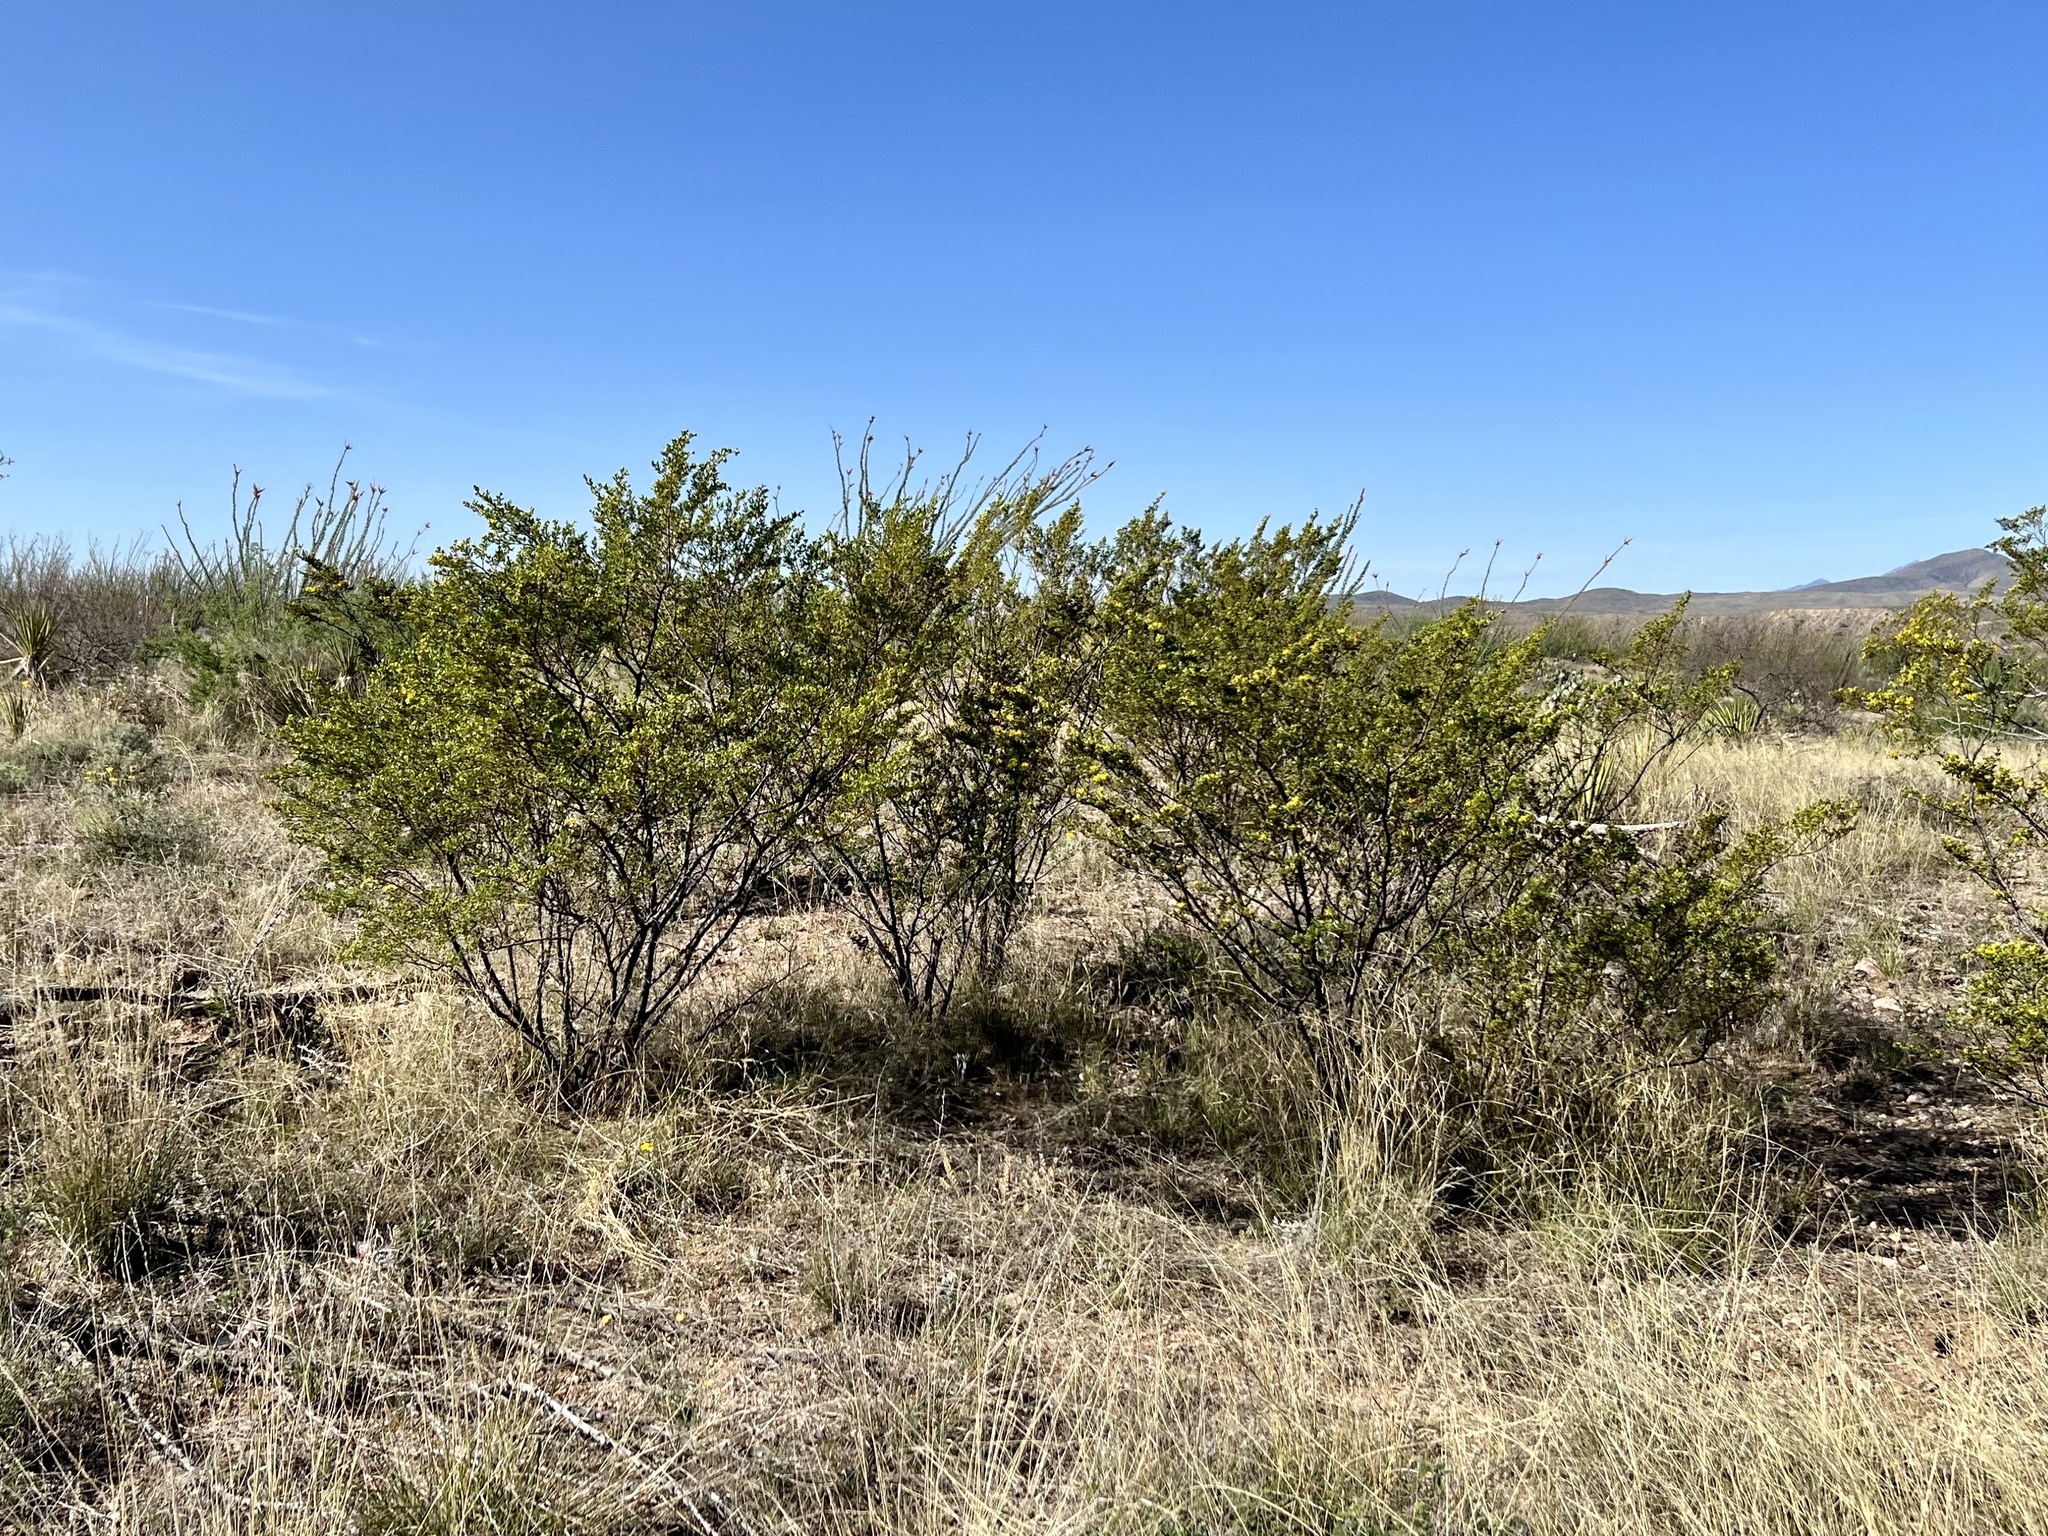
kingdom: Plantae
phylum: Tracheophyta
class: Magnoliopsida
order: Zygophyllales
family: Zygophyllaceae
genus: Larrea
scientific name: Larrea tridentata
